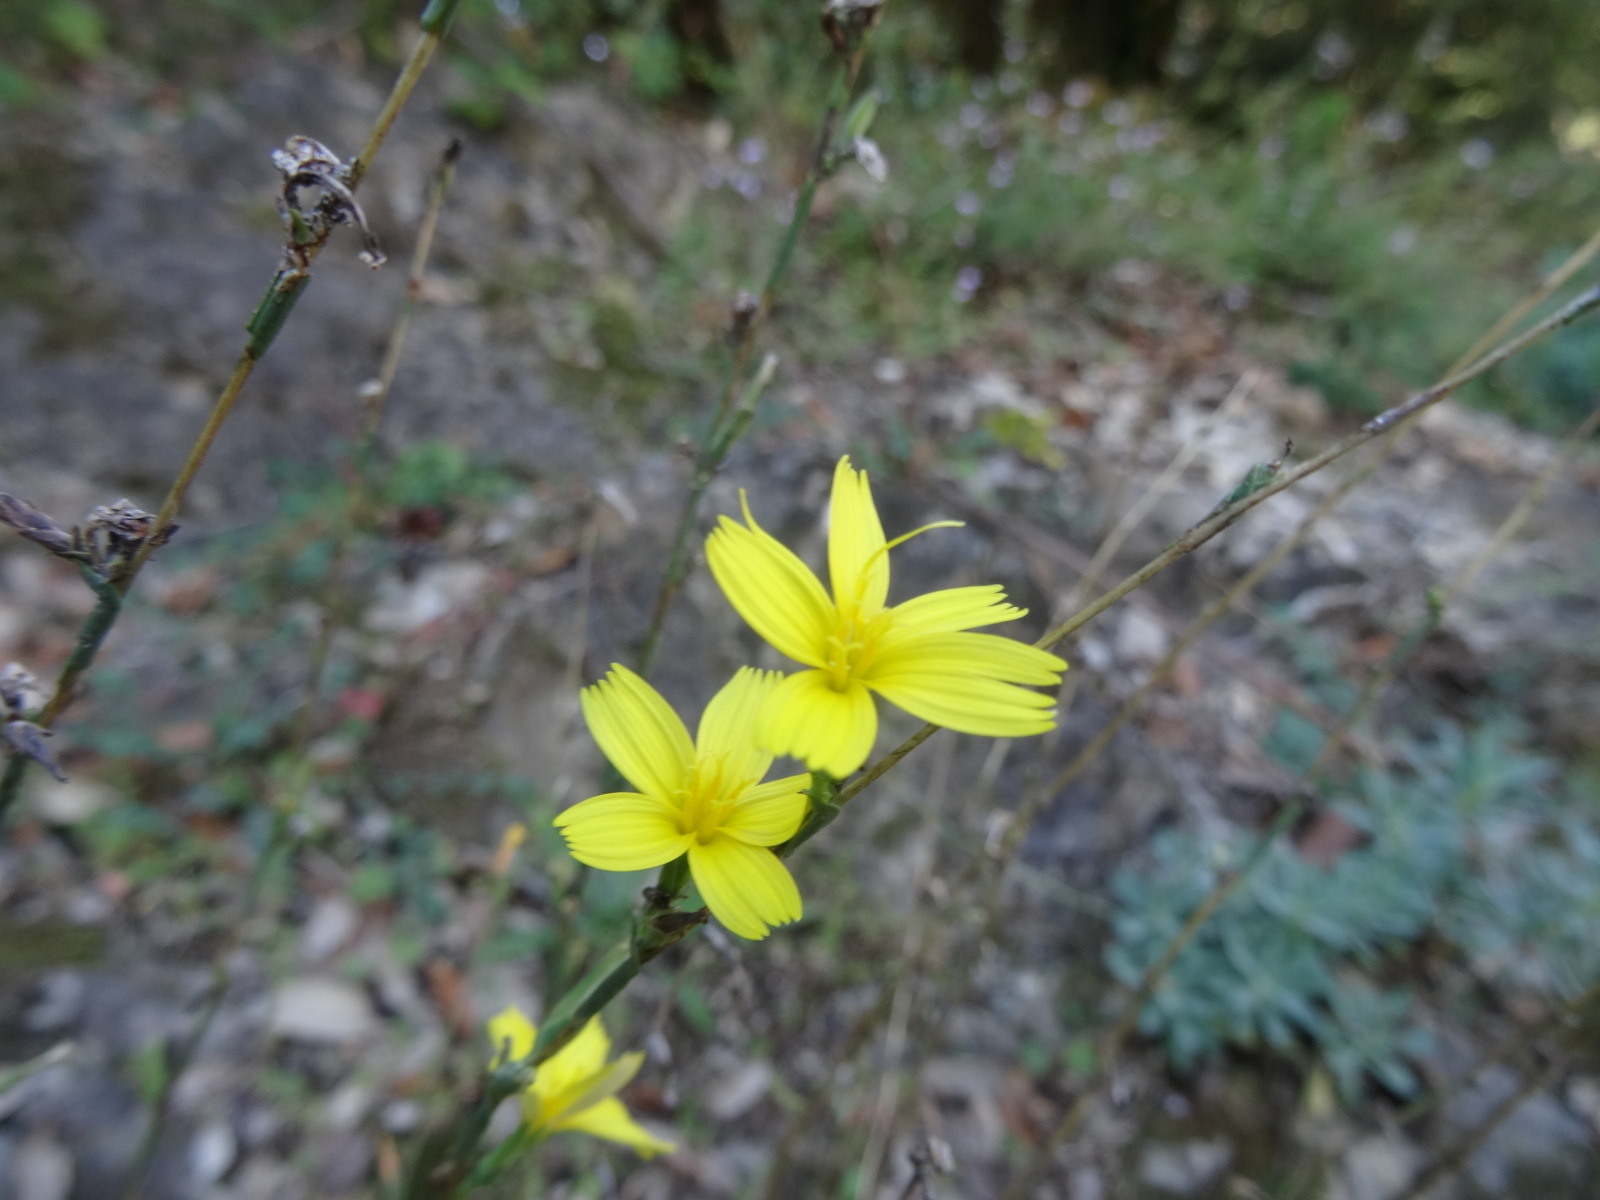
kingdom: Plantae
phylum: Tracheophyta
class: Magnoliopsida
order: Asterales
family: Asteraceae
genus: Lactuca
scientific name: Lactuca viminea
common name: Pliant lettuce
